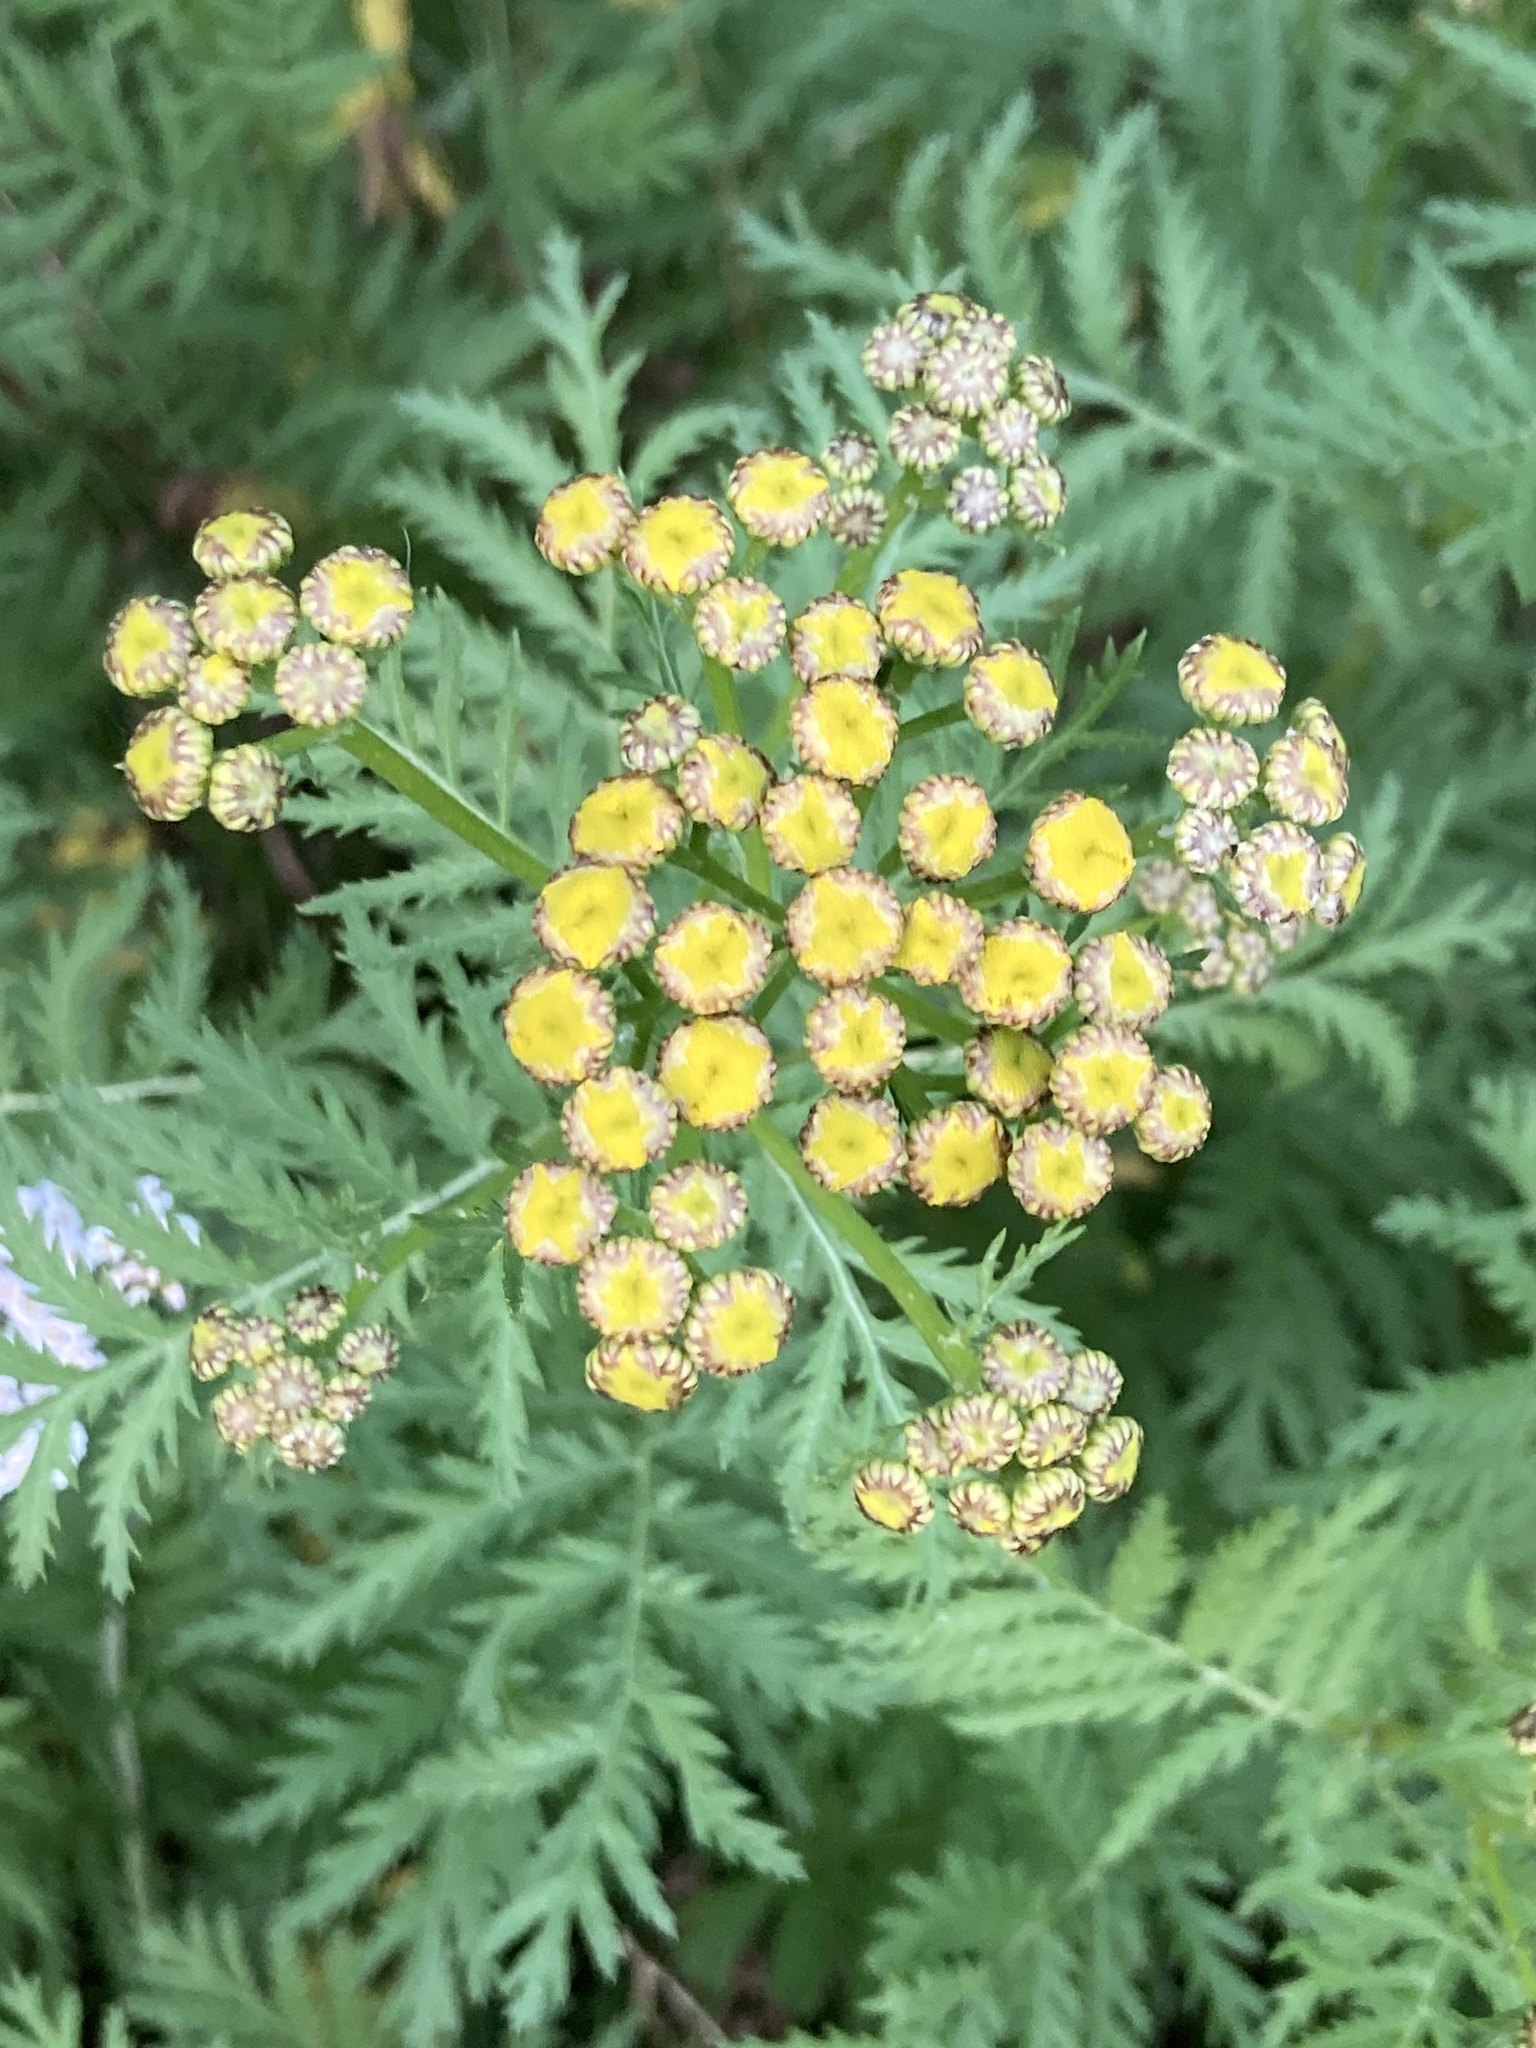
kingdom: Plantae
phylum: Tracheophyta
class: Magnoliopsida
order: Asterales
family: Asteraceae
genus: Tanacetum
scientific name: Tanacetum vulgare
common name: Common tansy
